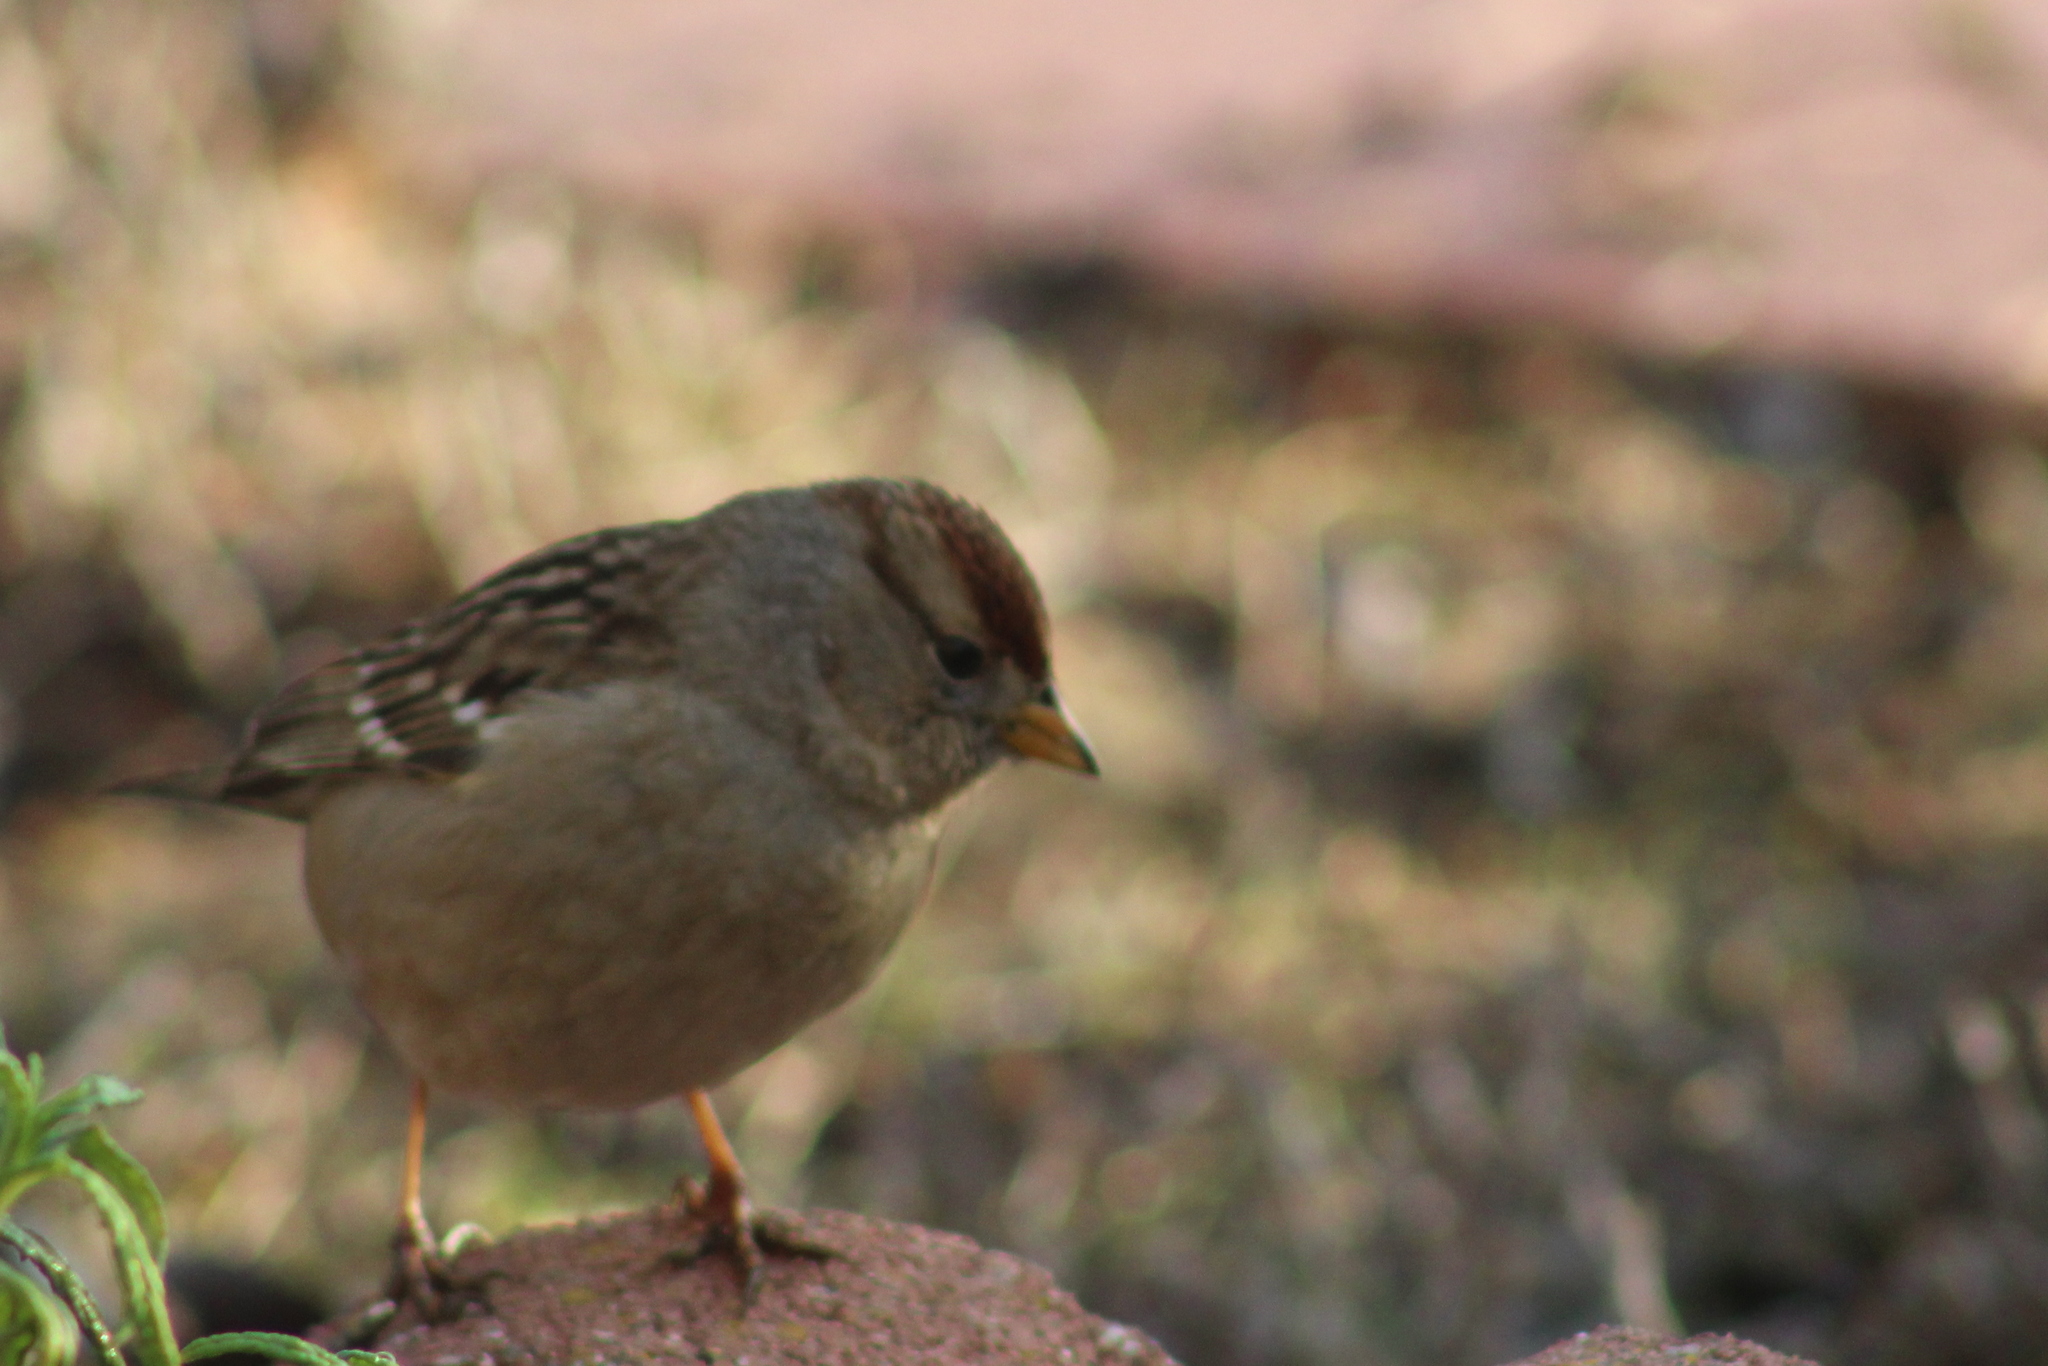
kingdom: Animalia
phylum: Chordata
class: Aves
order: Passeriformes
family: Passerellidae
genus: Zonotrichia
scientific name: Zonotrichia leucophrys
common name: White-crowned sparrow
